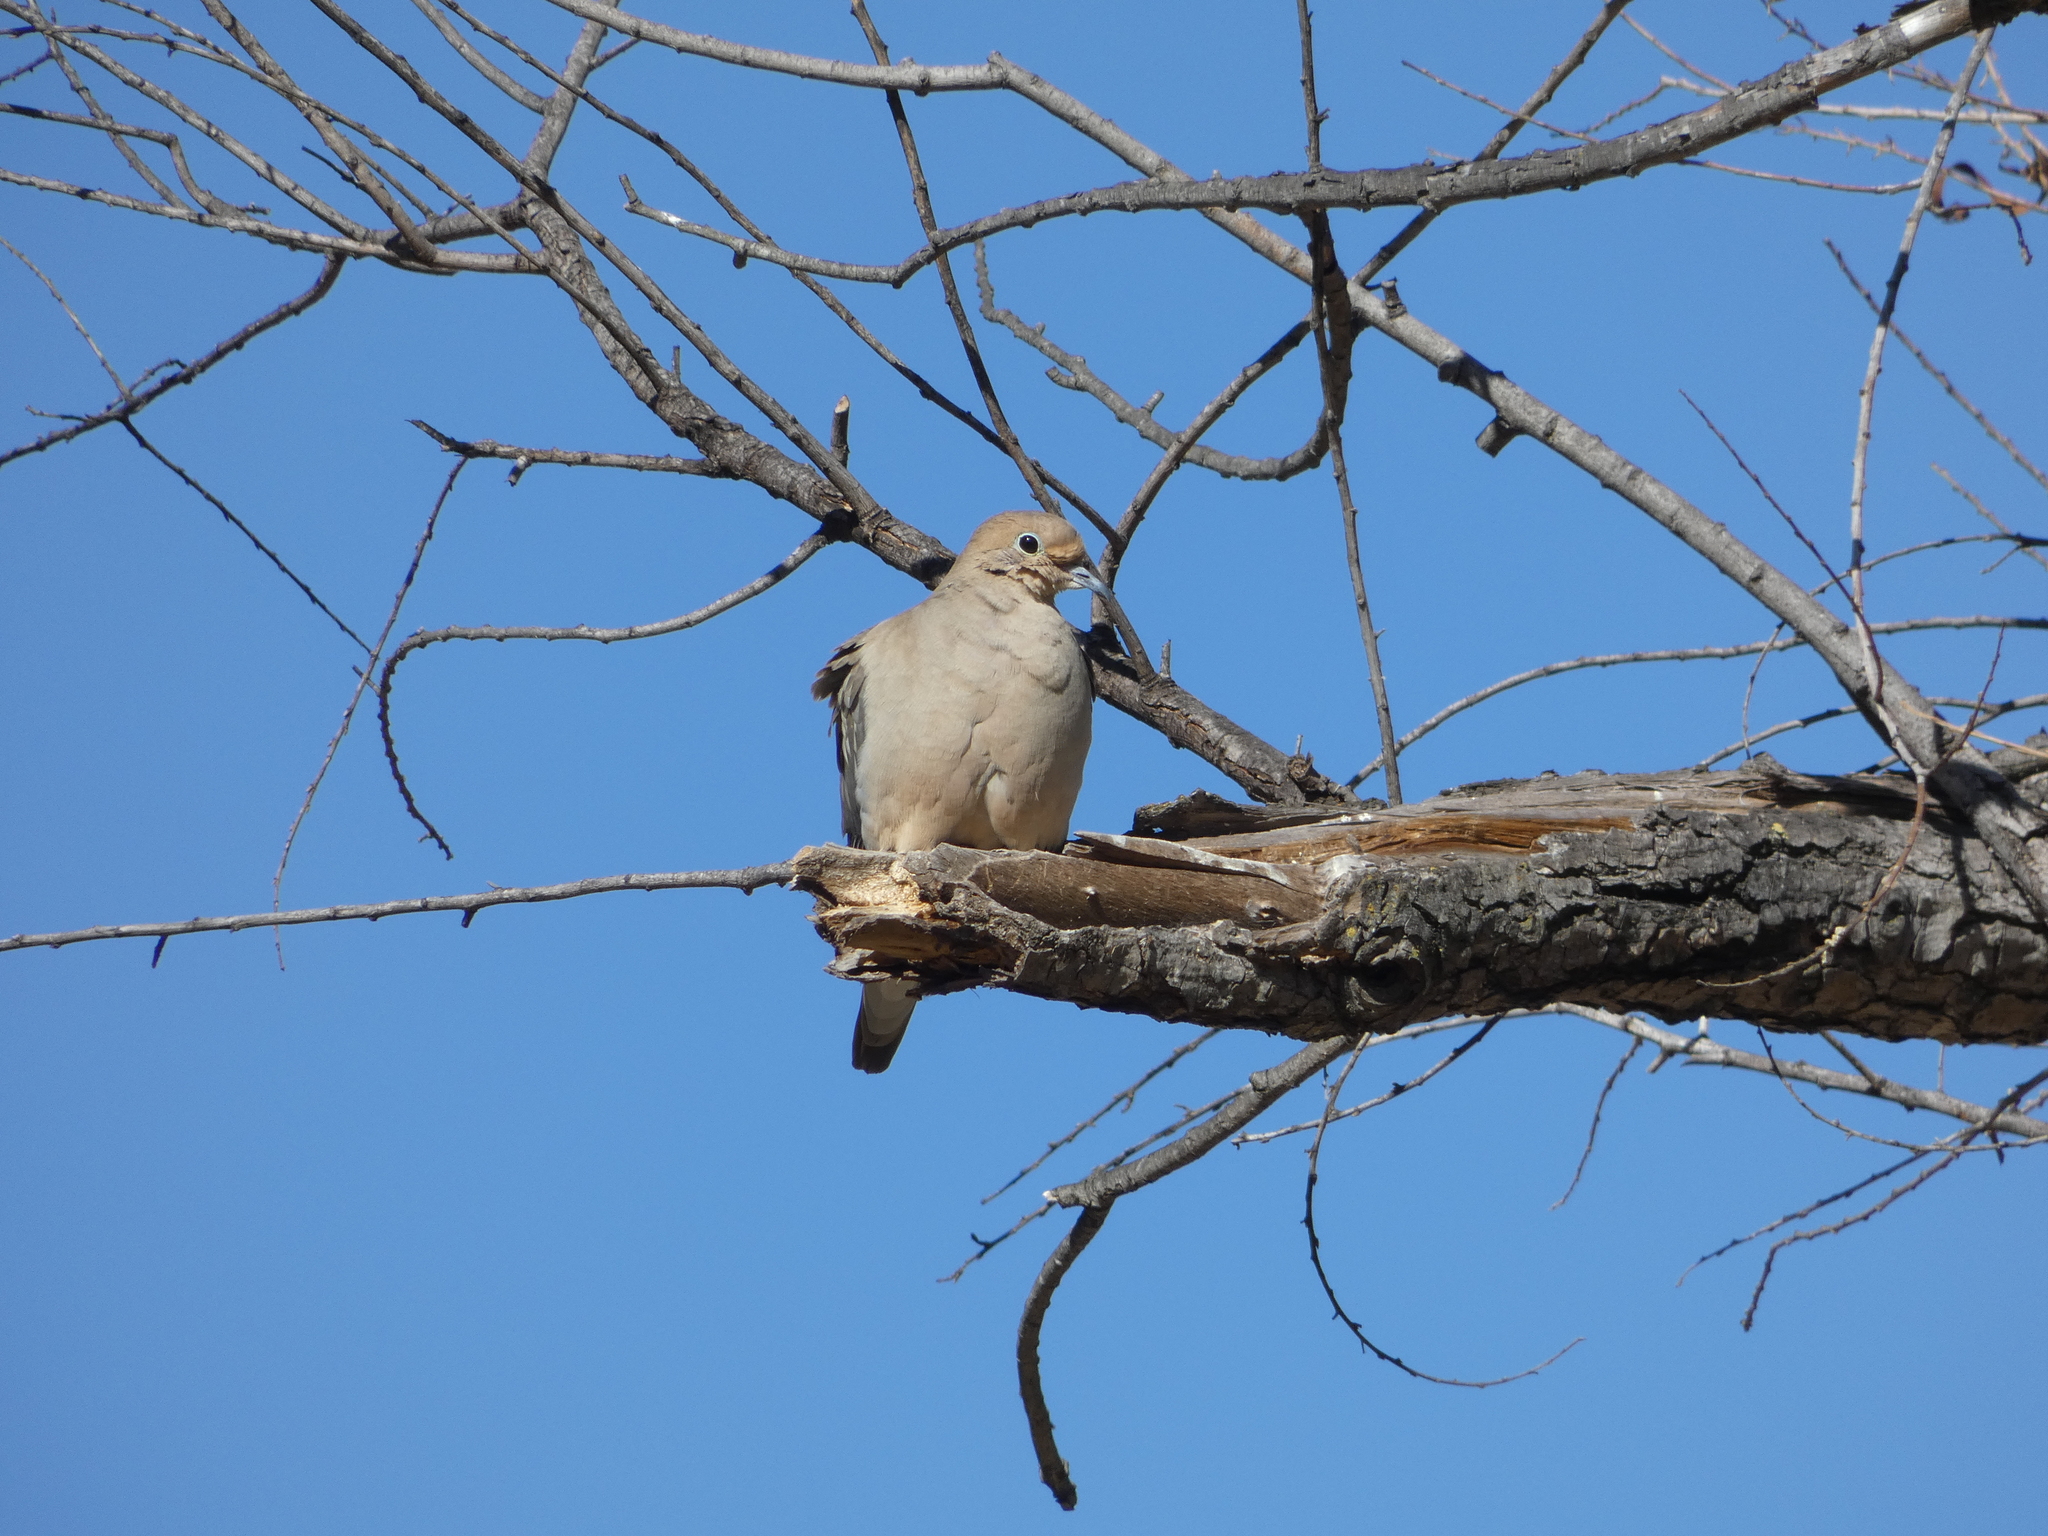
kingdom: Animalia
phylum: Chordata
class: Aves
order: Columbiformes
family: Columbidae
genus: Zenaida
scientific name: Zenaida macroura
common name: Mourning dove
